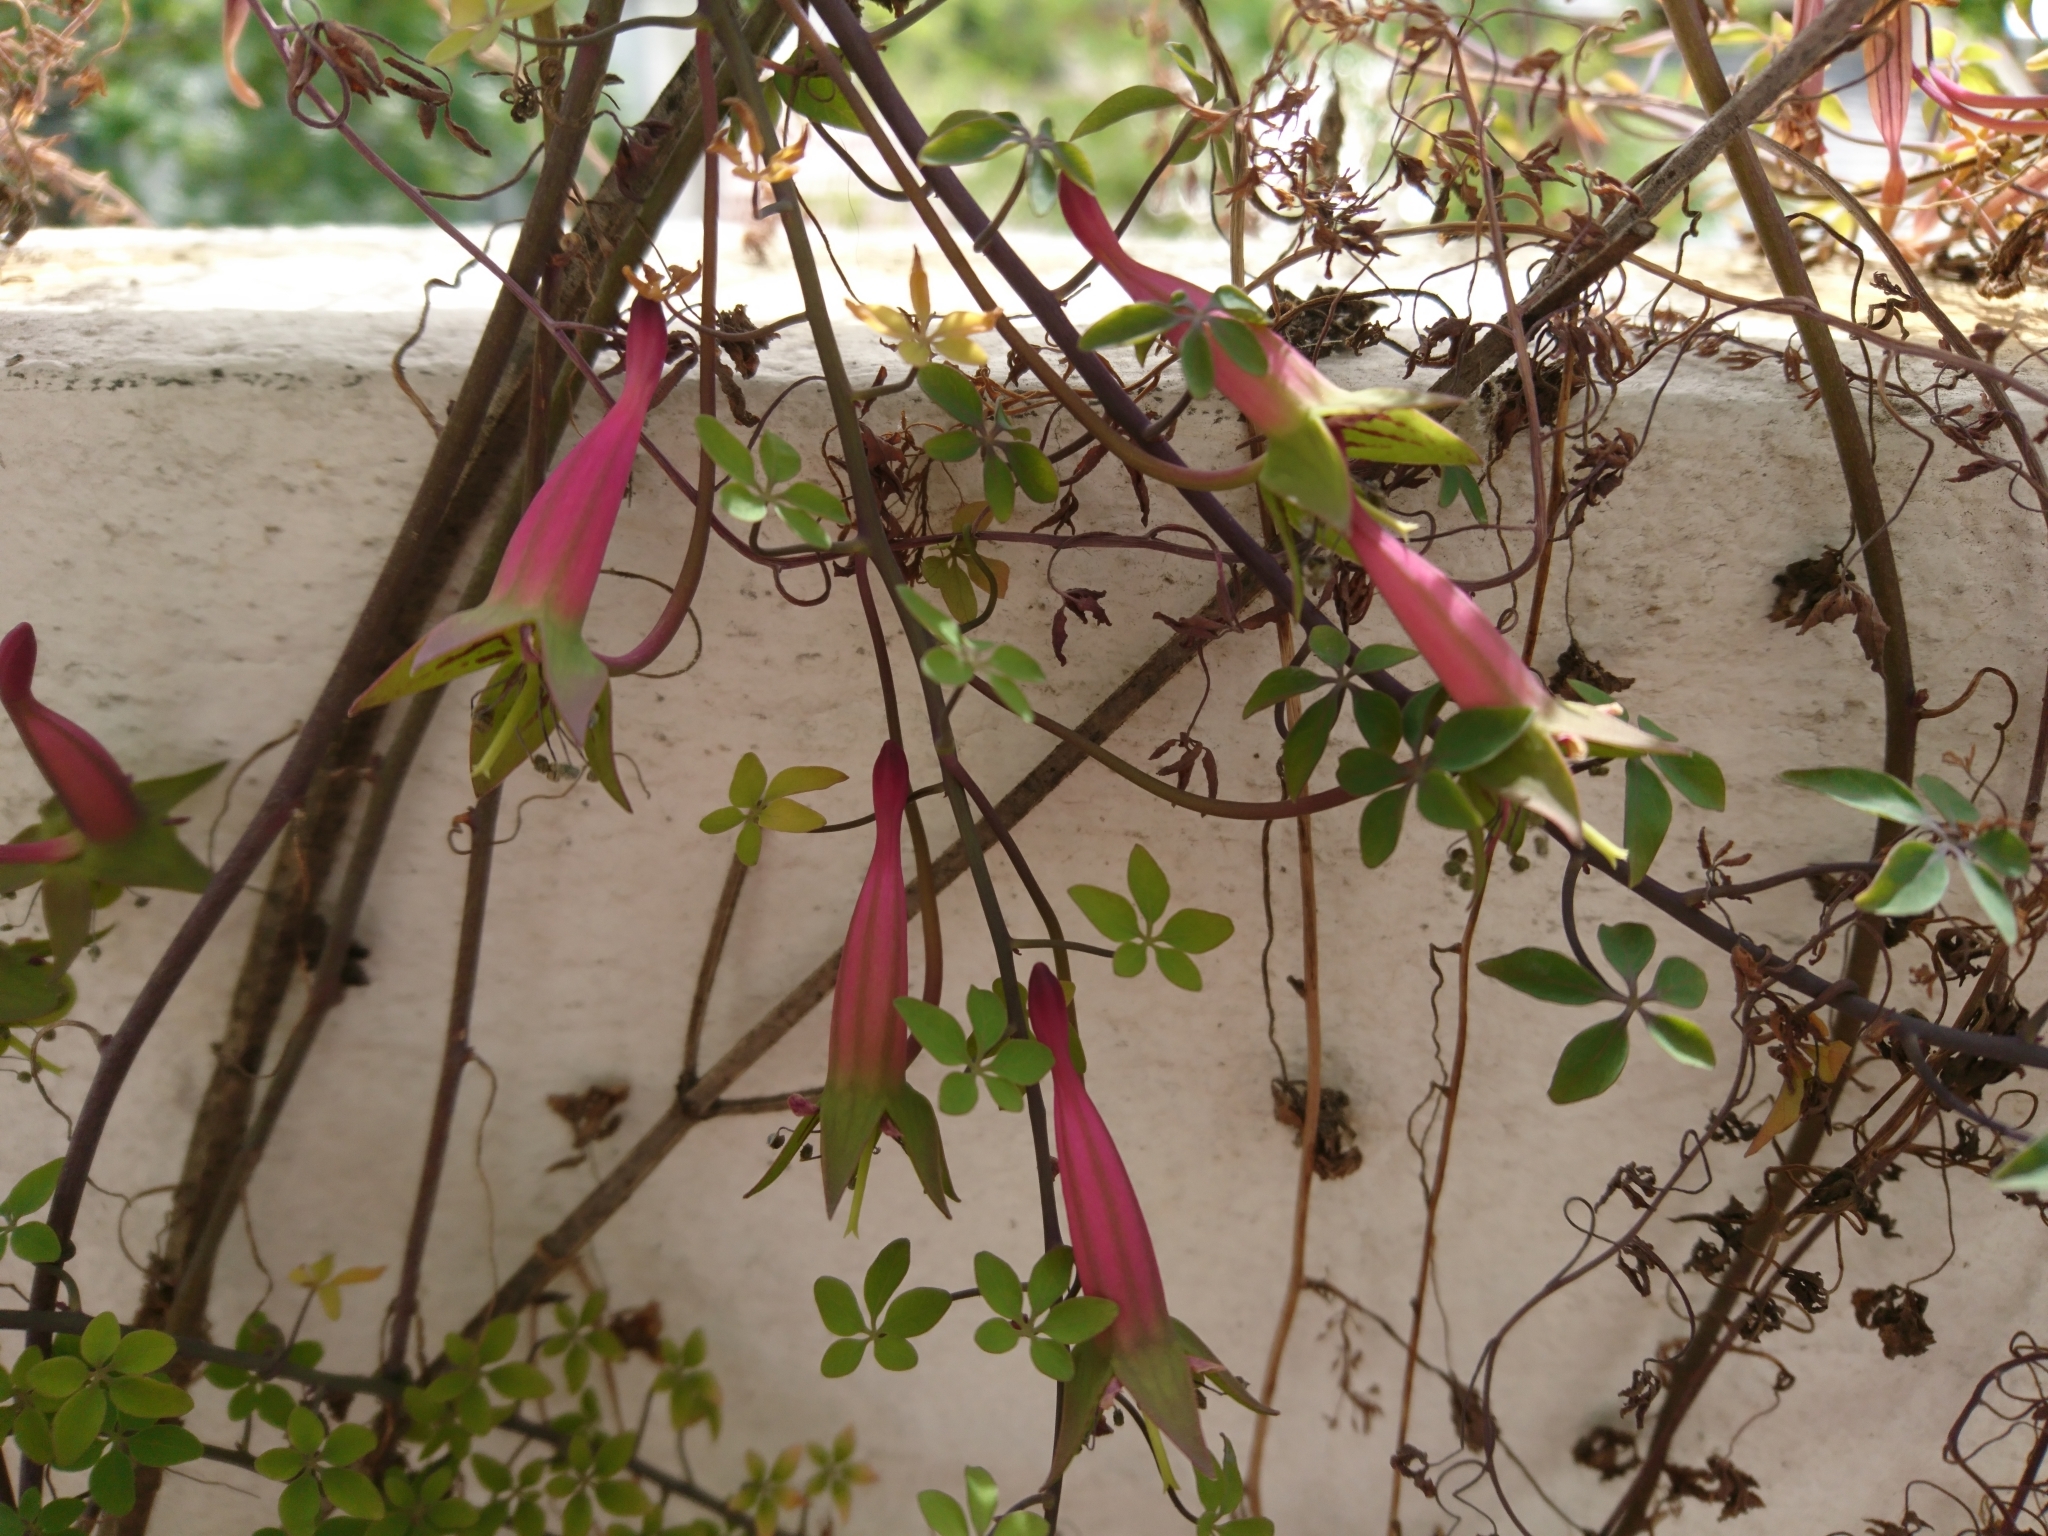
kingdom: Plantae
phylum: Tracheophyta
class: Magnoliopsida
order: Brassicales
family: Tropaeolaceae
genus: Tropaeolum
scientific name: Tropaeolum pentaphyllum
